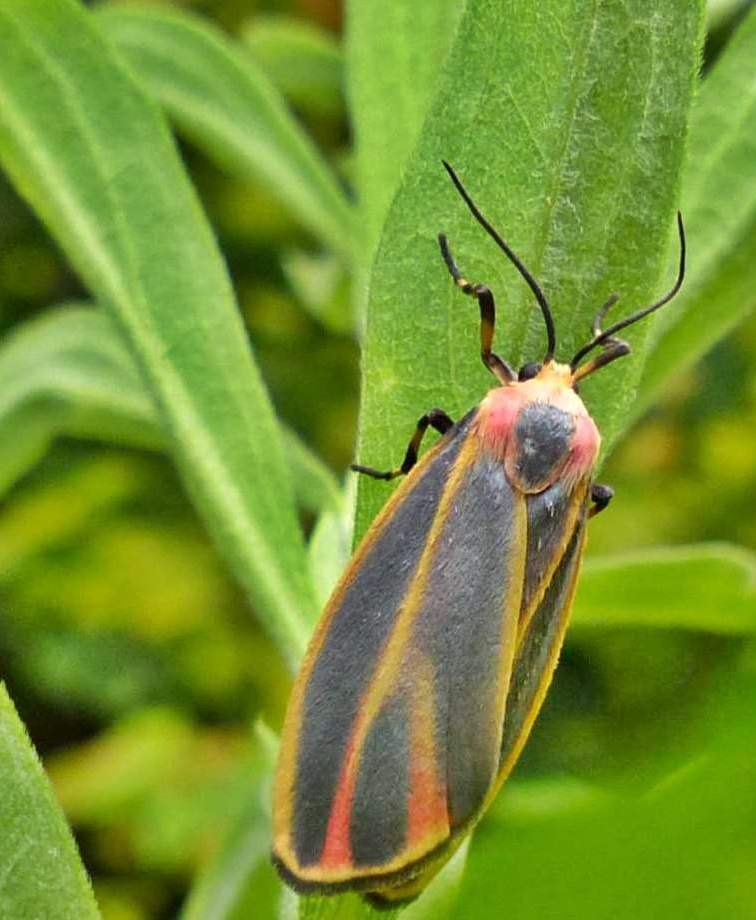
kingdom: Animalia
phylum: Arthropoda
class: Insecta
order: Lepidoptera
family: Erebidae
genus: Hypoprepia
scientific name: Hypoprepia fucosa
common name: Painted lichen moth
